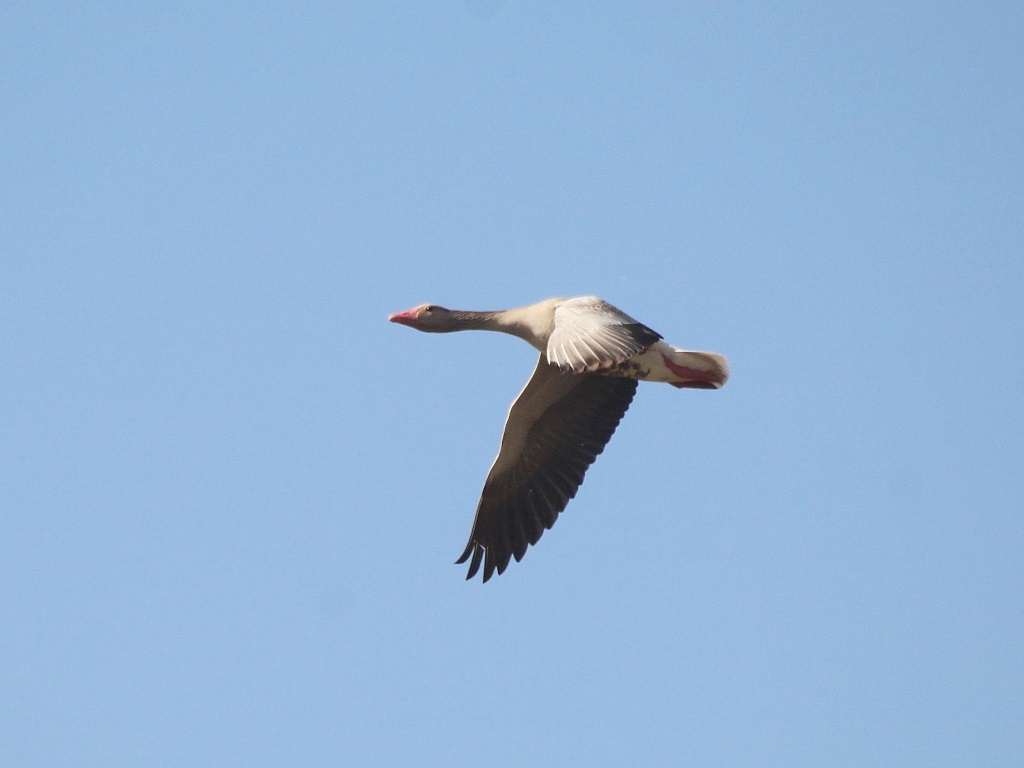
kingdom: Animalia
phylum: Chordata
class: Aves
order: Anseriformes
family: Anatidae
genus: Anser
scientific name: Anser anser
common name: Greylag goose
